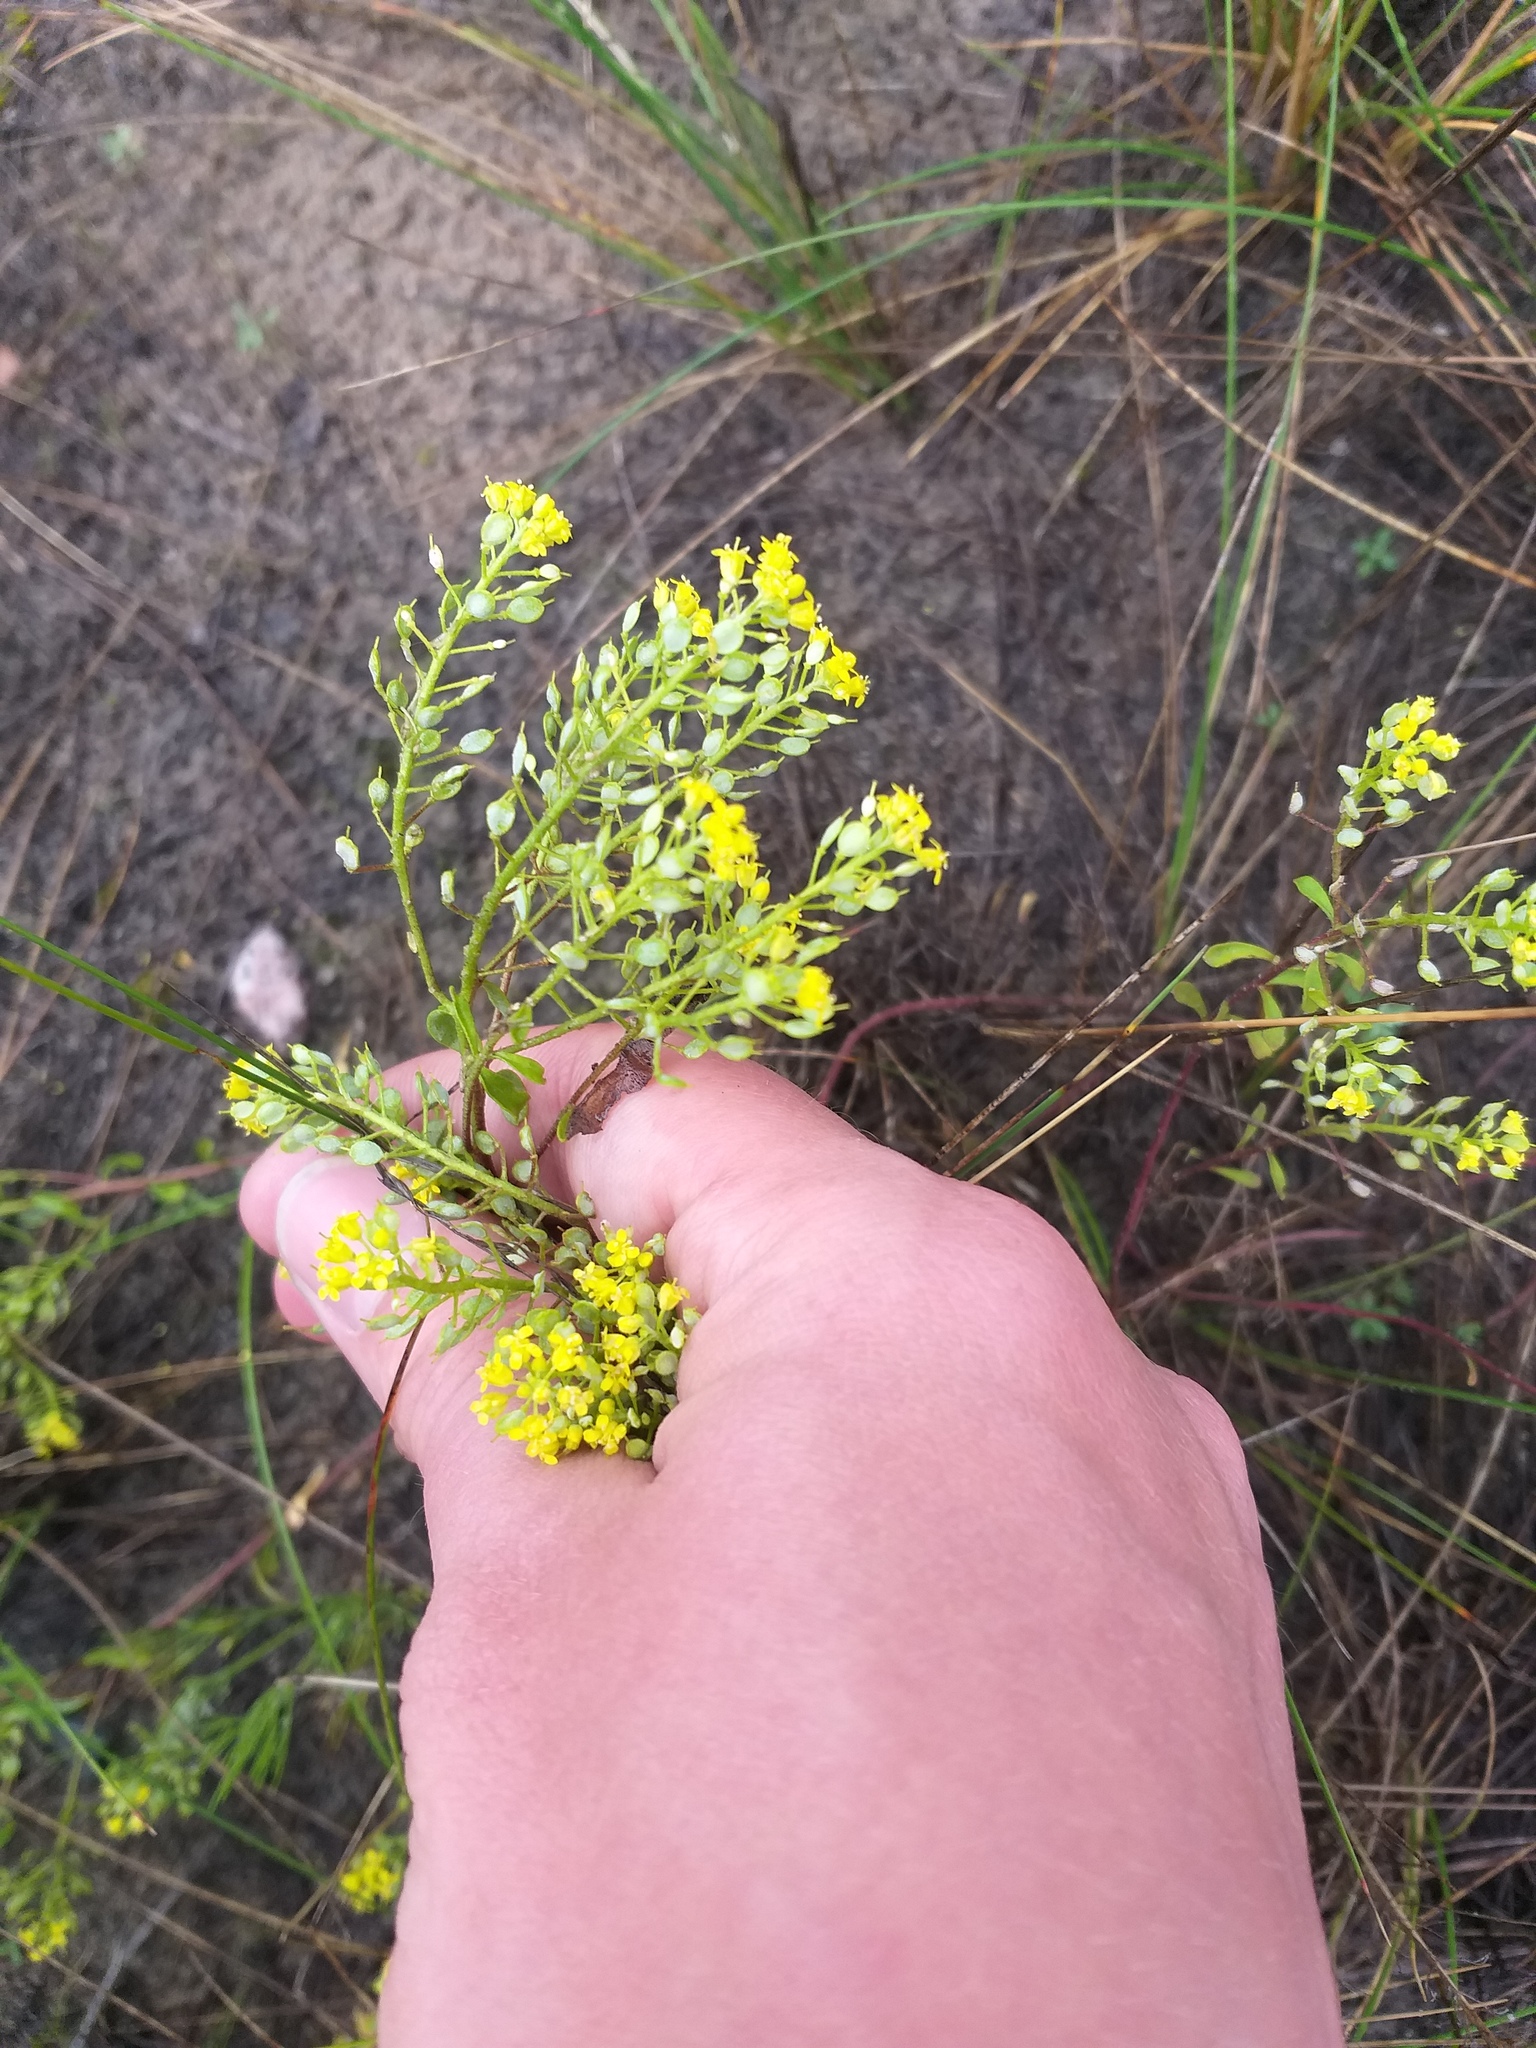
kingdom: Plantae
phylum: Tracheophyta
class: Magnoliopsida
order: Brassicales
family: Brassicaceae
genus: Odontarrhena
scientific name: Odontarrhena tortuosa
